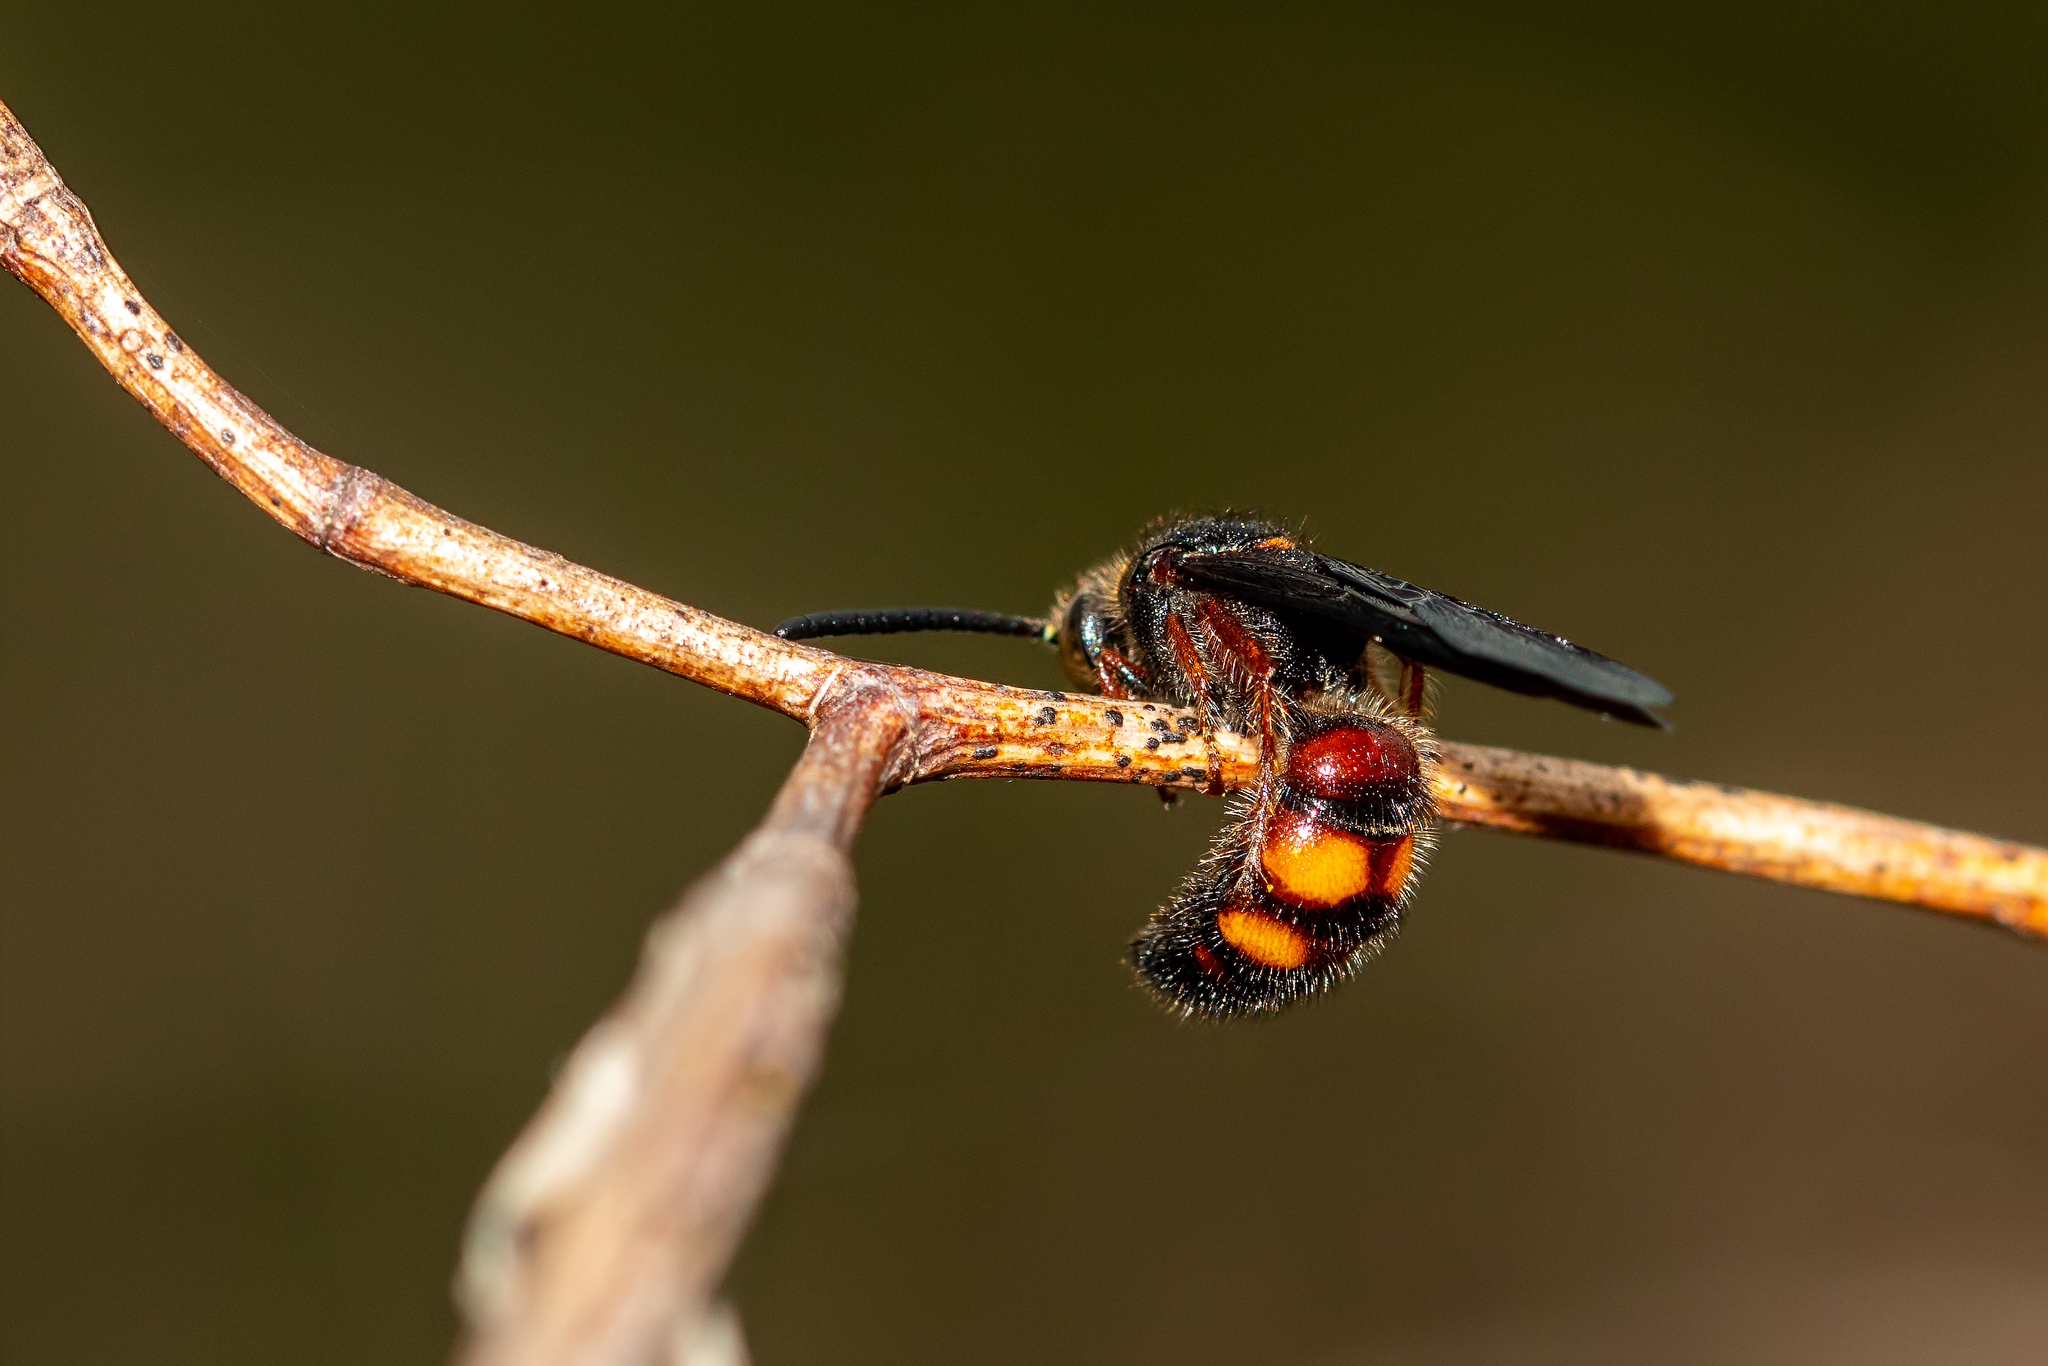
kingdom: Animalia
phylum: Arthropoda
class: Insecta
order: Hymenoptera
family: Scoliidae
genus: Scolia
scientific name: Scolia nobilitata
